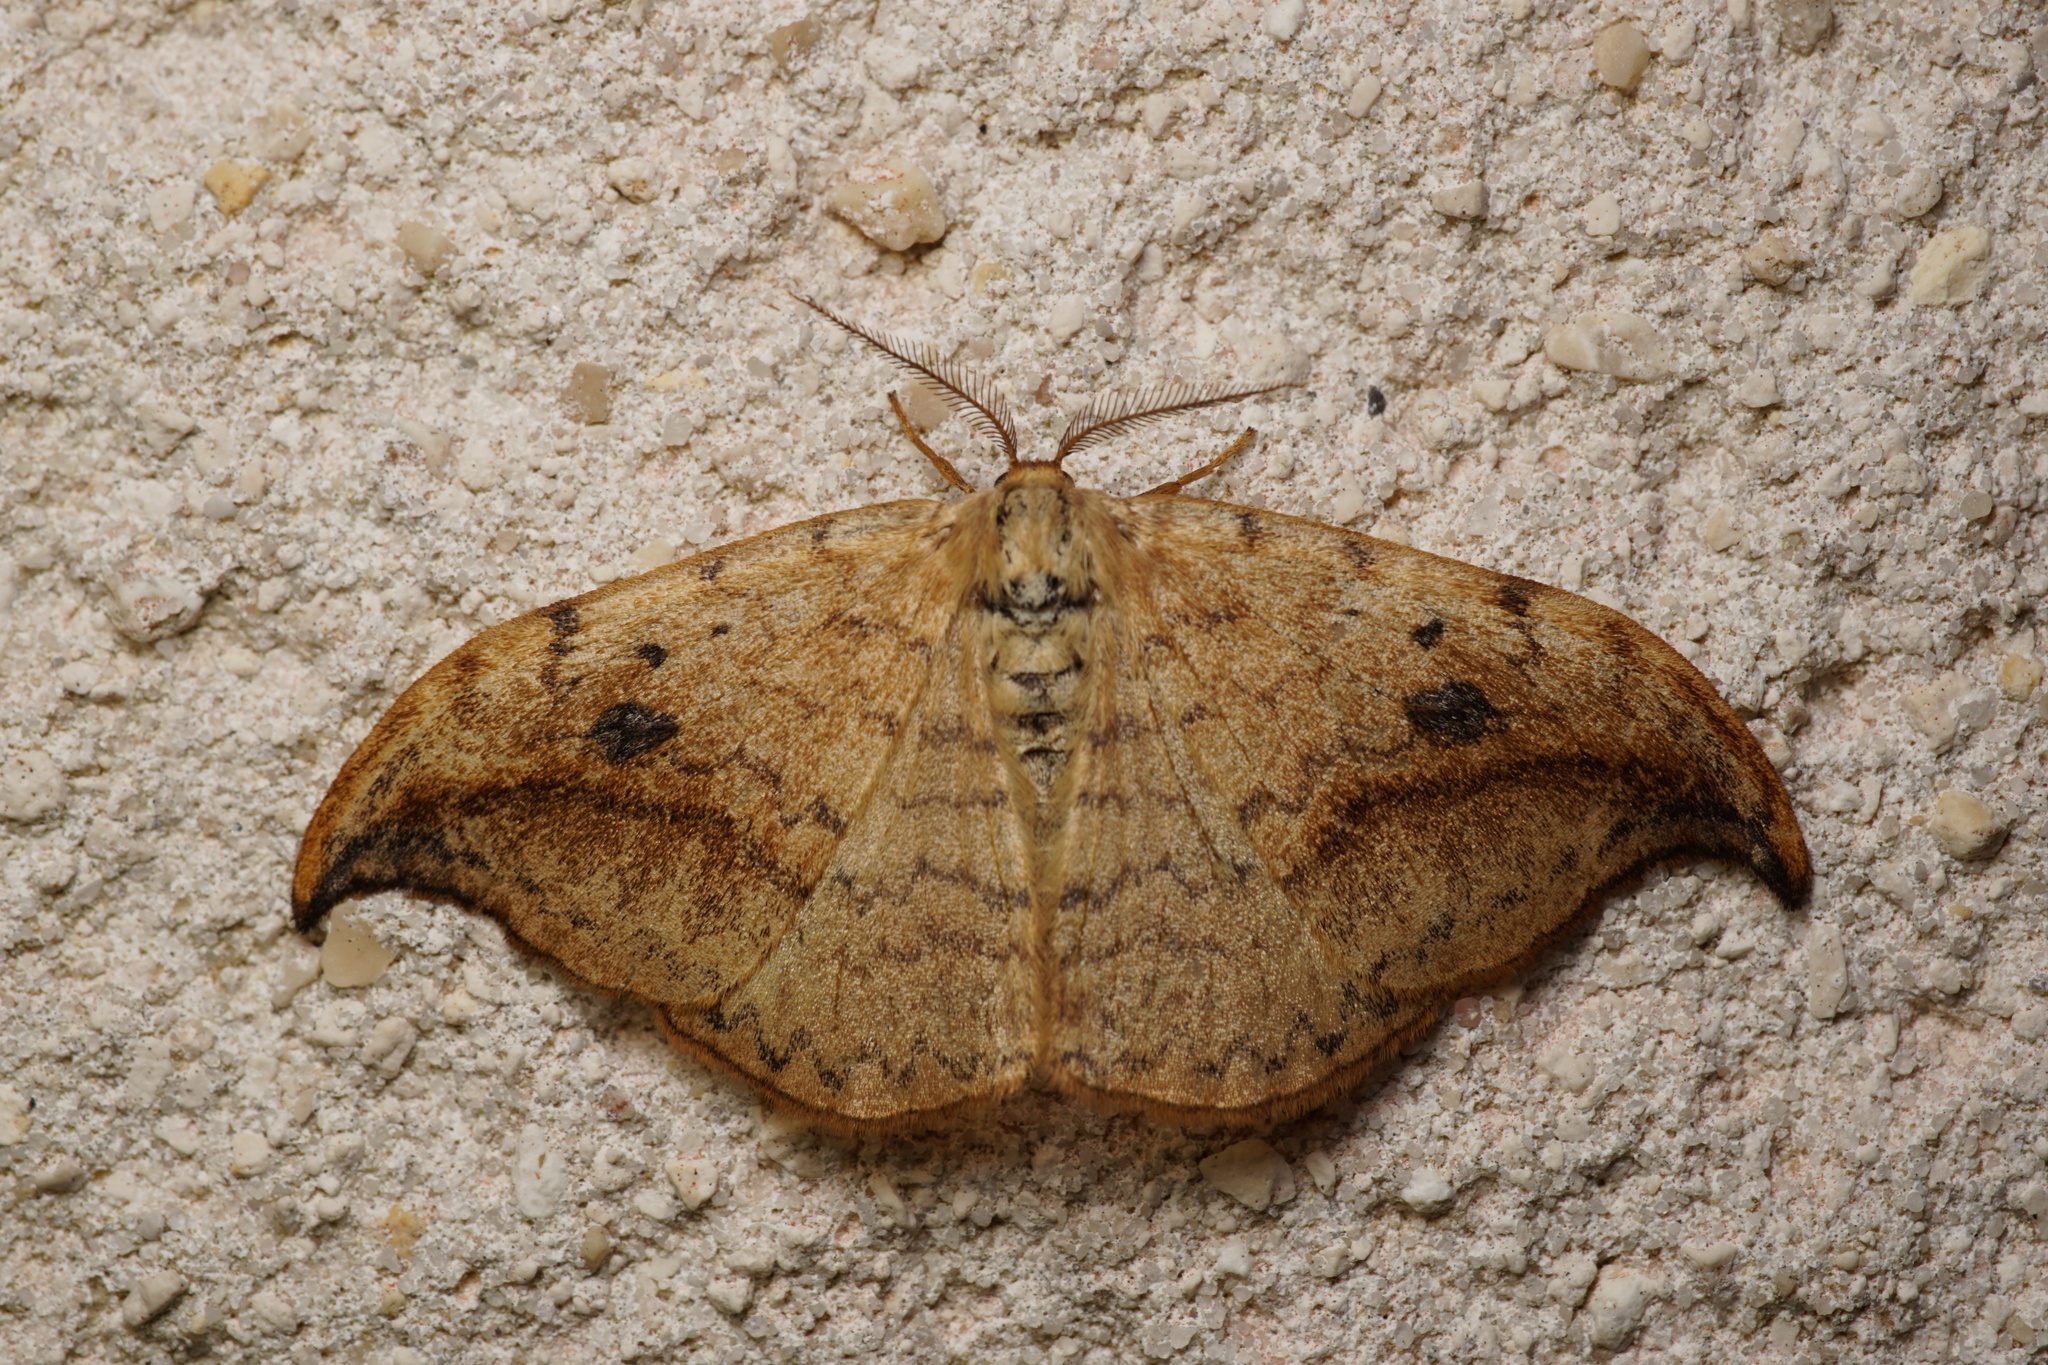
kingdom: Animalia
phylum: Arthropoda
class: Insecta
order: Lepidoptera
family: Drepanidae
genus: Drepana
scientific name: Drepana falcataria
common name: Pebble hook-tip
